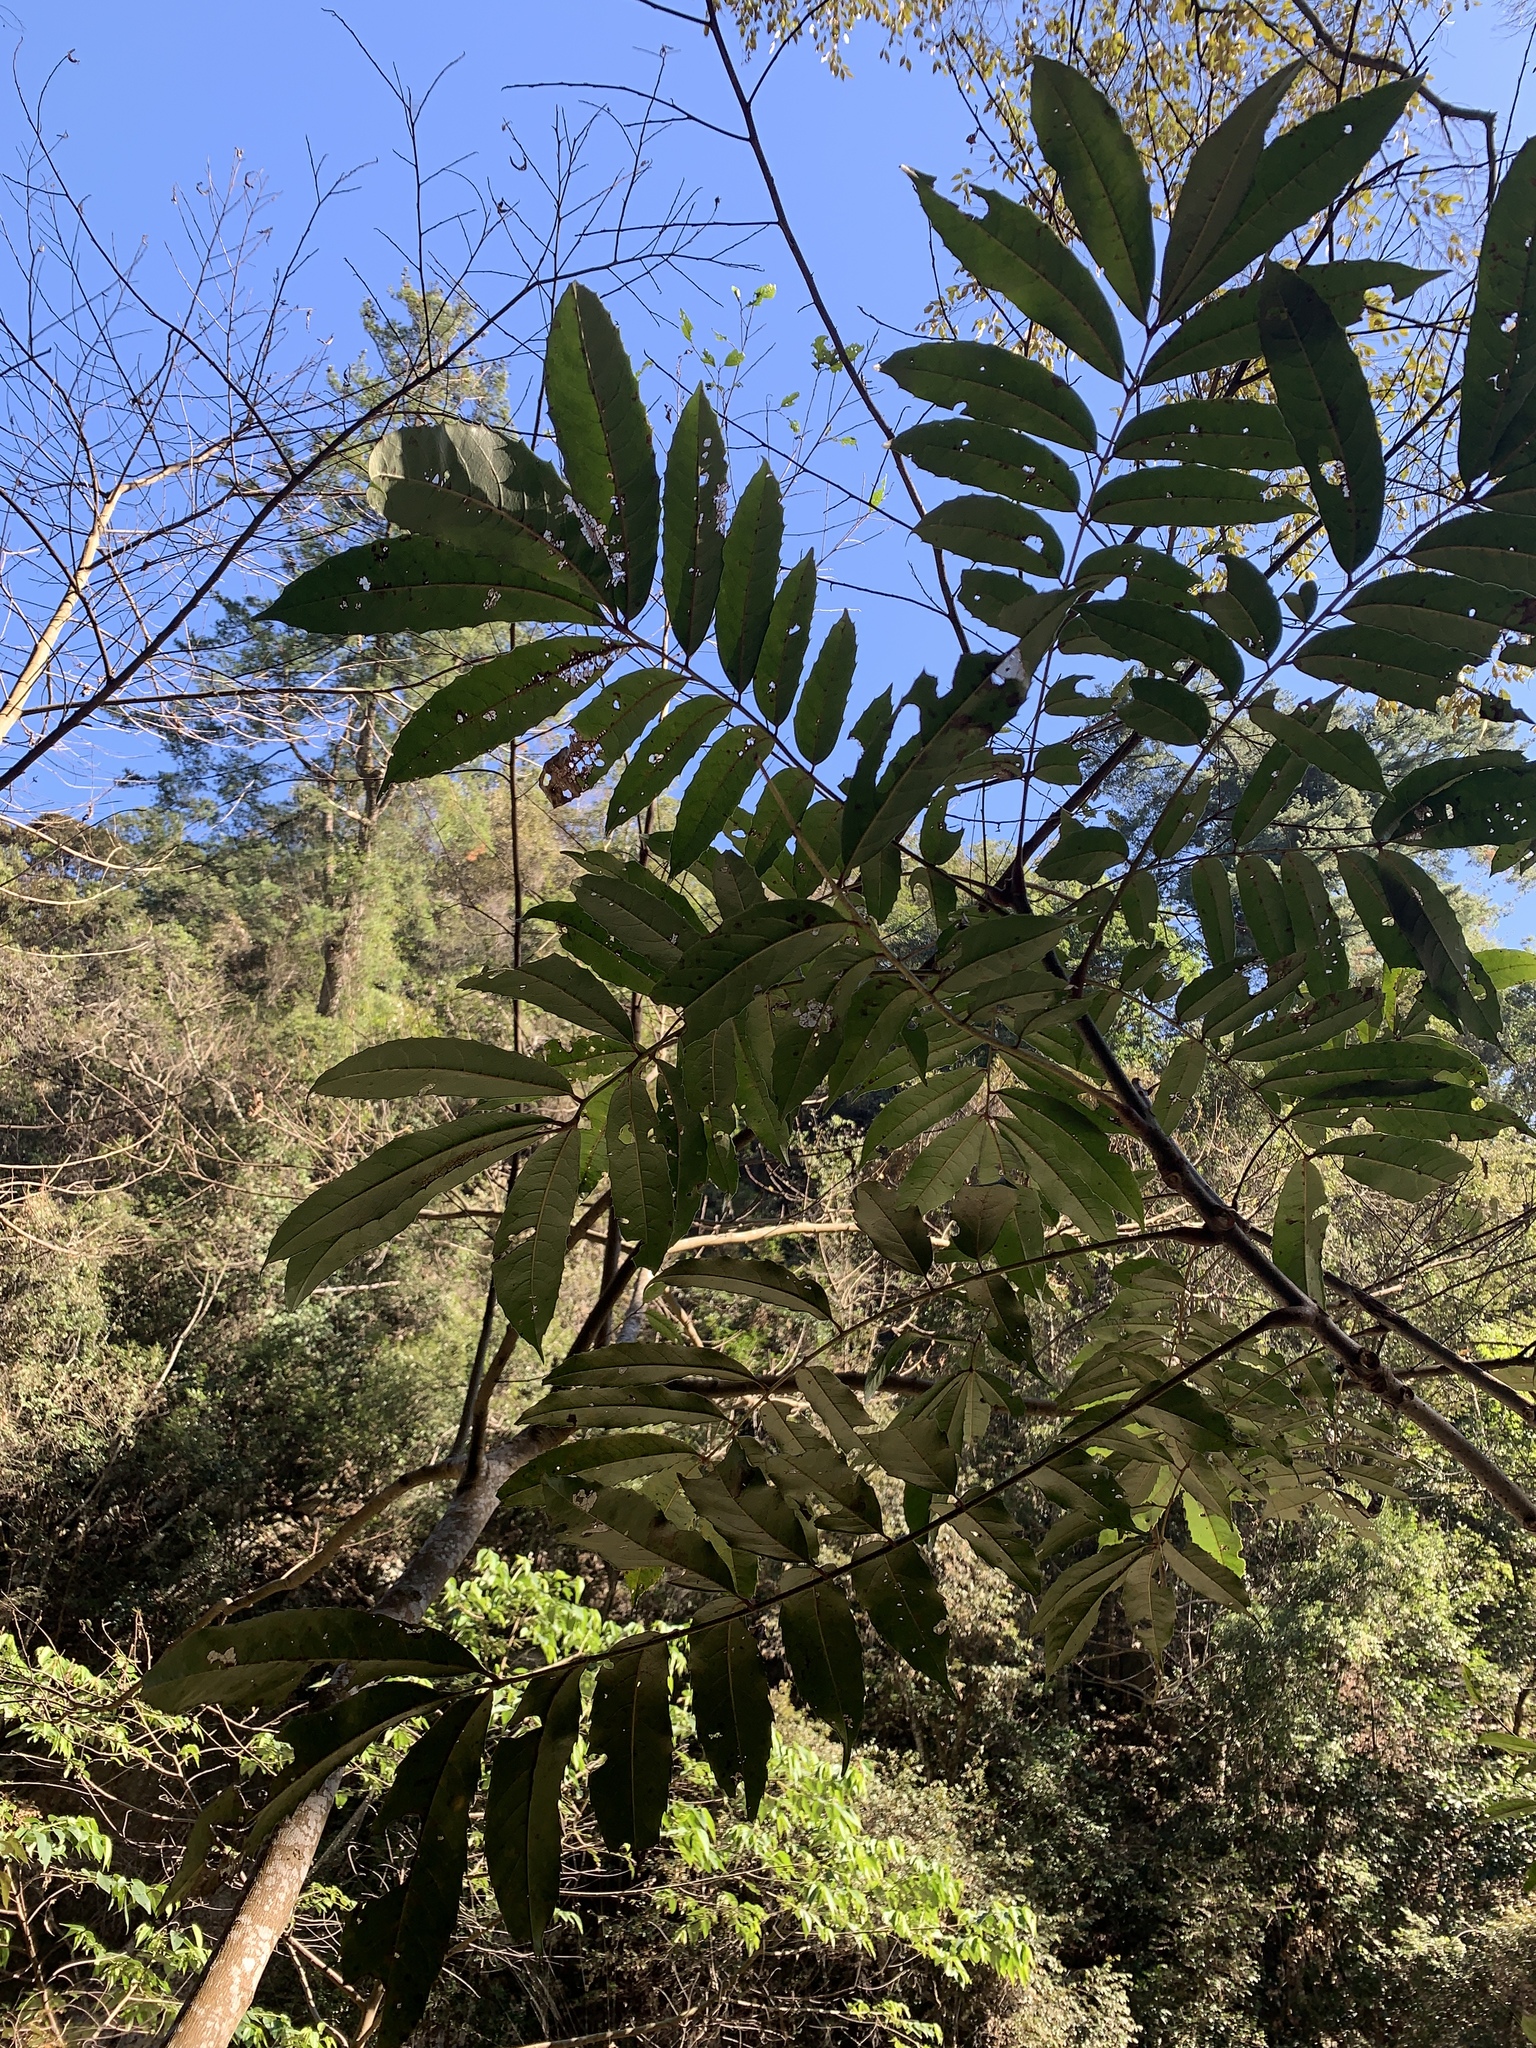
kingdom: Plantae
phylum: Tracheophyta
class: Magnoliopsida
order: Proteales
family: Sabiaceae
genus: Meliosma
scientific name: Meliosma rhoifolia
